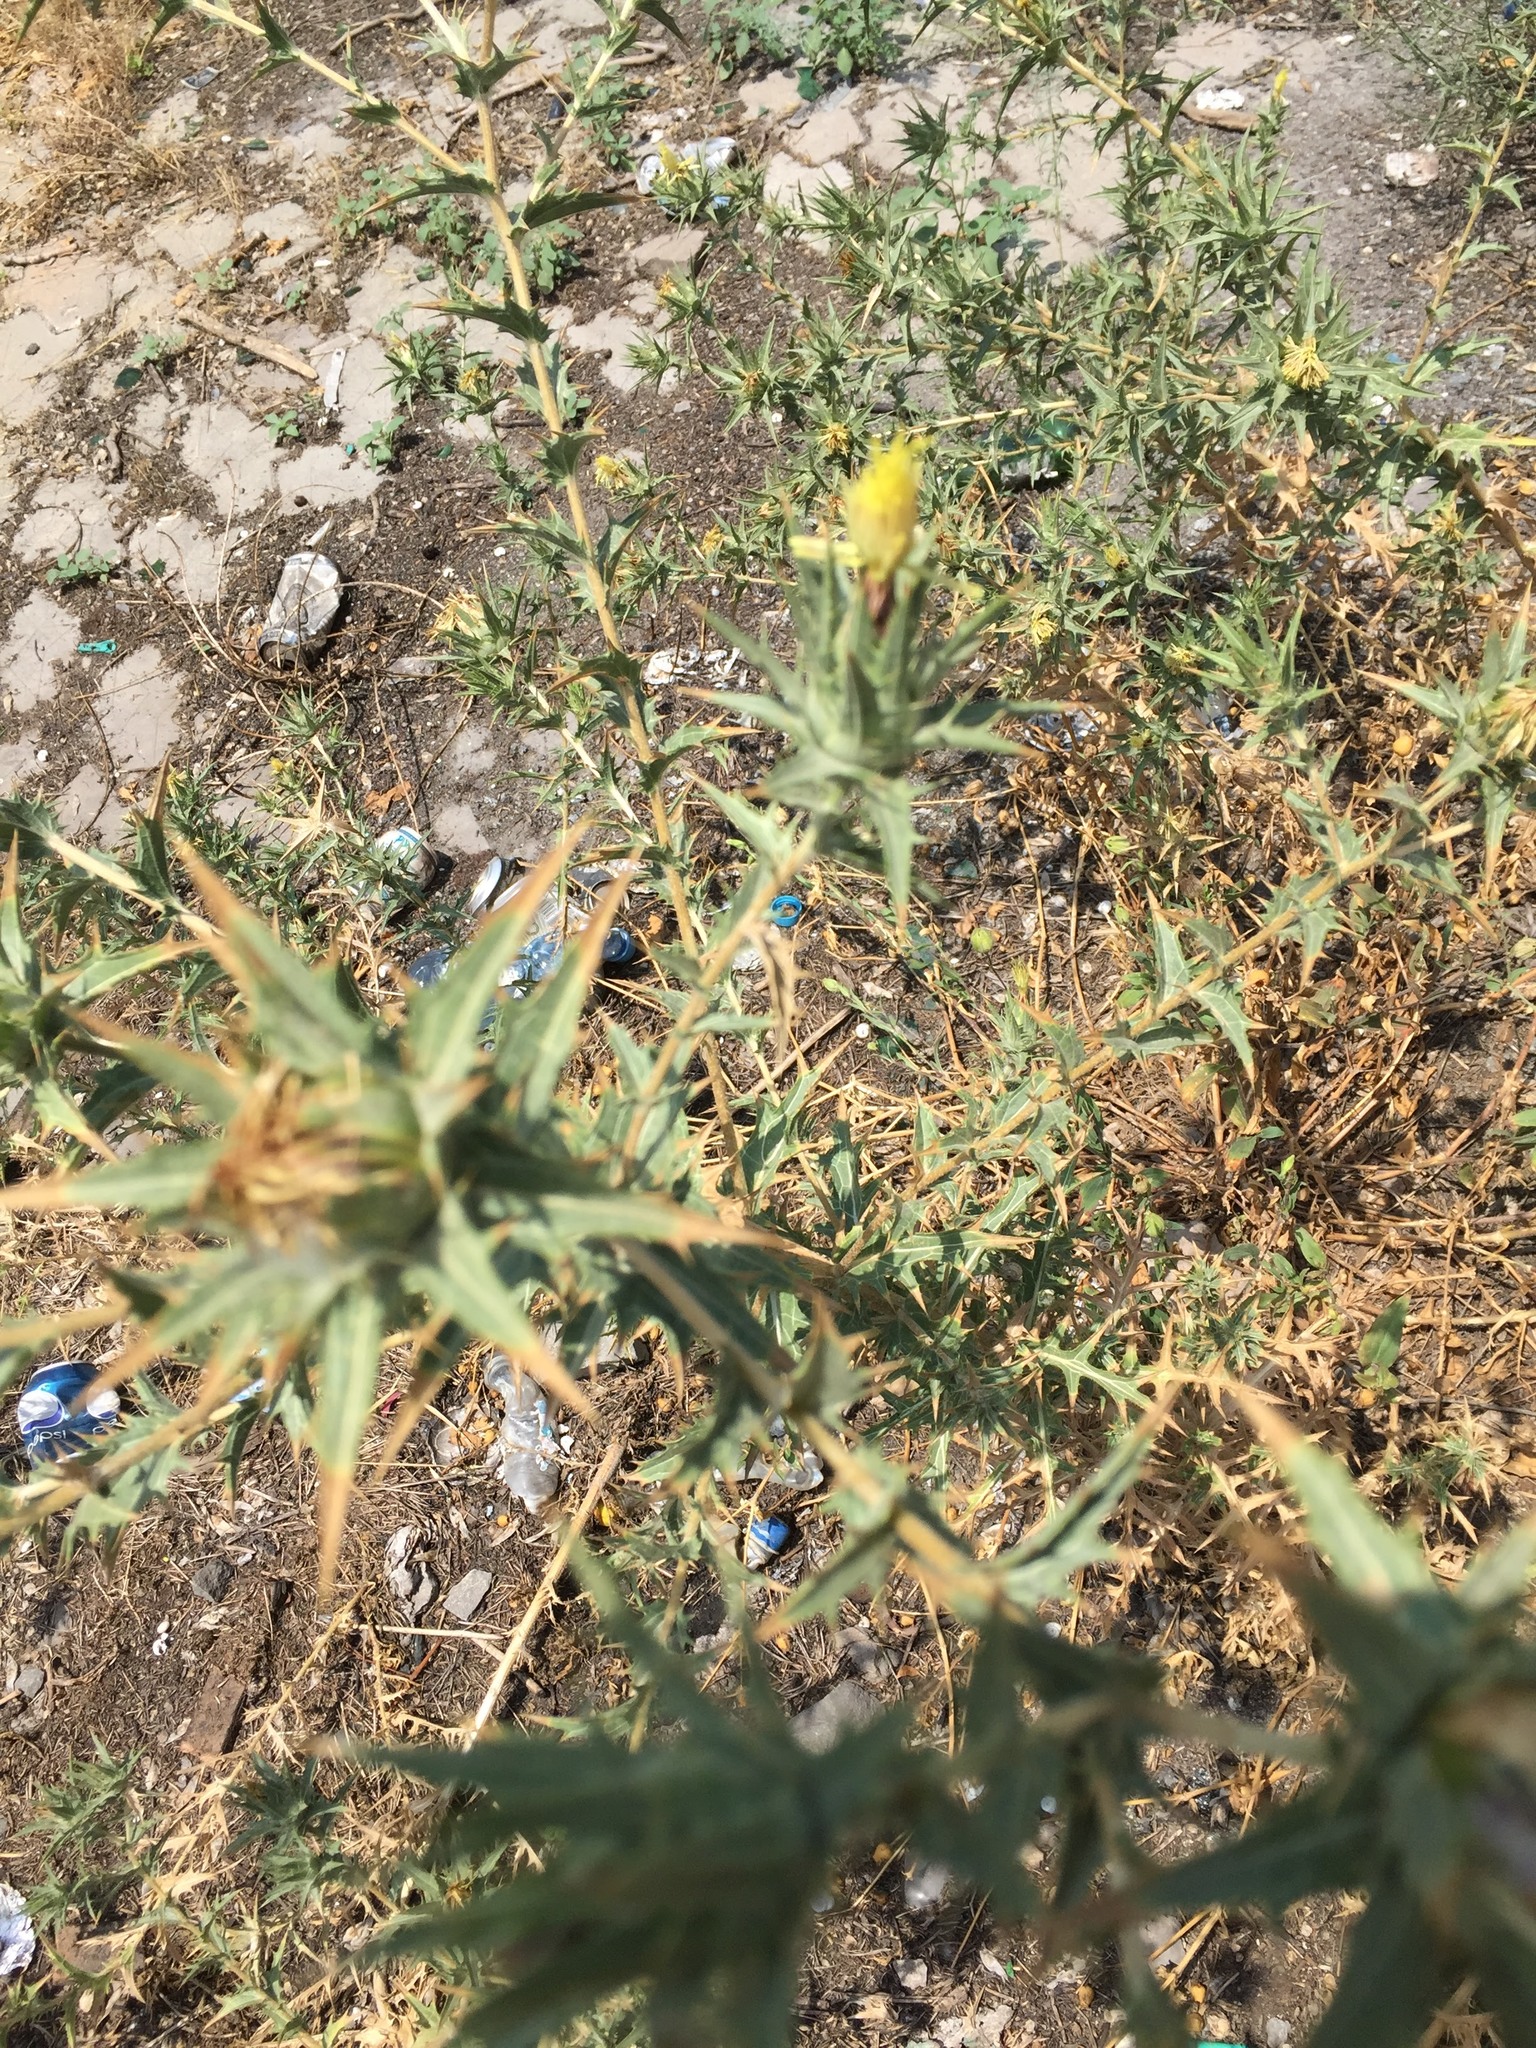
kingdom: Plantae
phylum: Tracheophyta
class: Magnoliopsida
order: Asterales
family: Asteraceae
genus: Carthamus
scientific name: Carthamus lanatus
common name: Downy safflower
